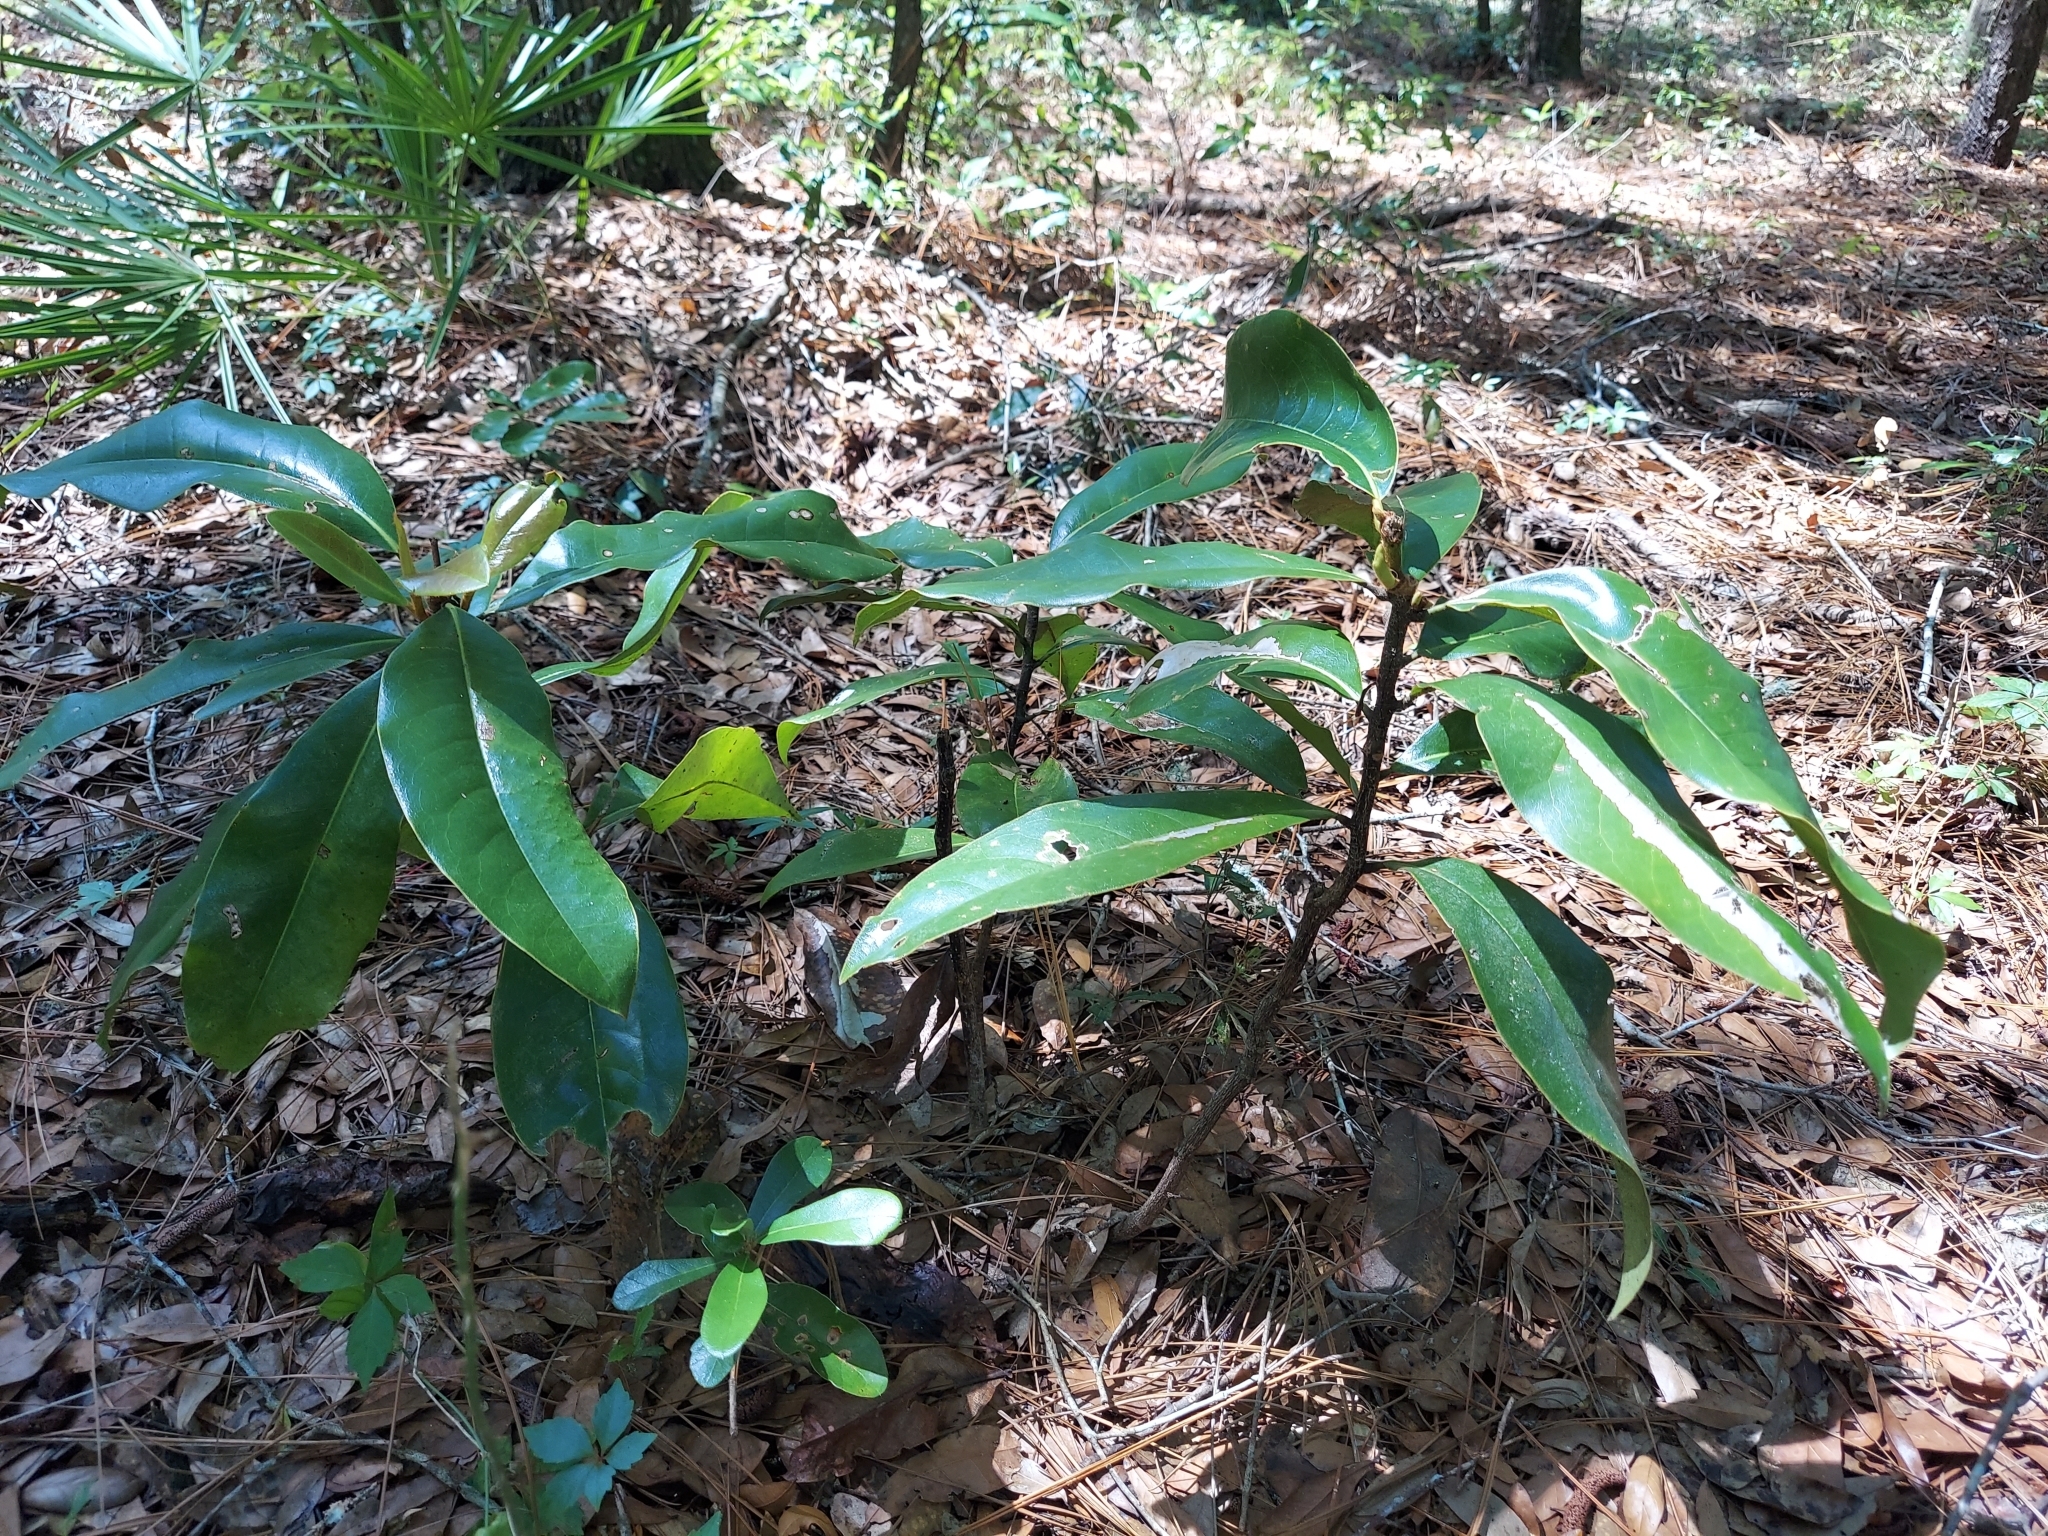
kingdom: Plantae
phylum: Tracheophyta
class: Magnoliopsida
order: Magnoliales
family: Magnoliaceae
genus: Magnolia
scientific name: Magnolia grandiflora
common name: Southern magnolia
